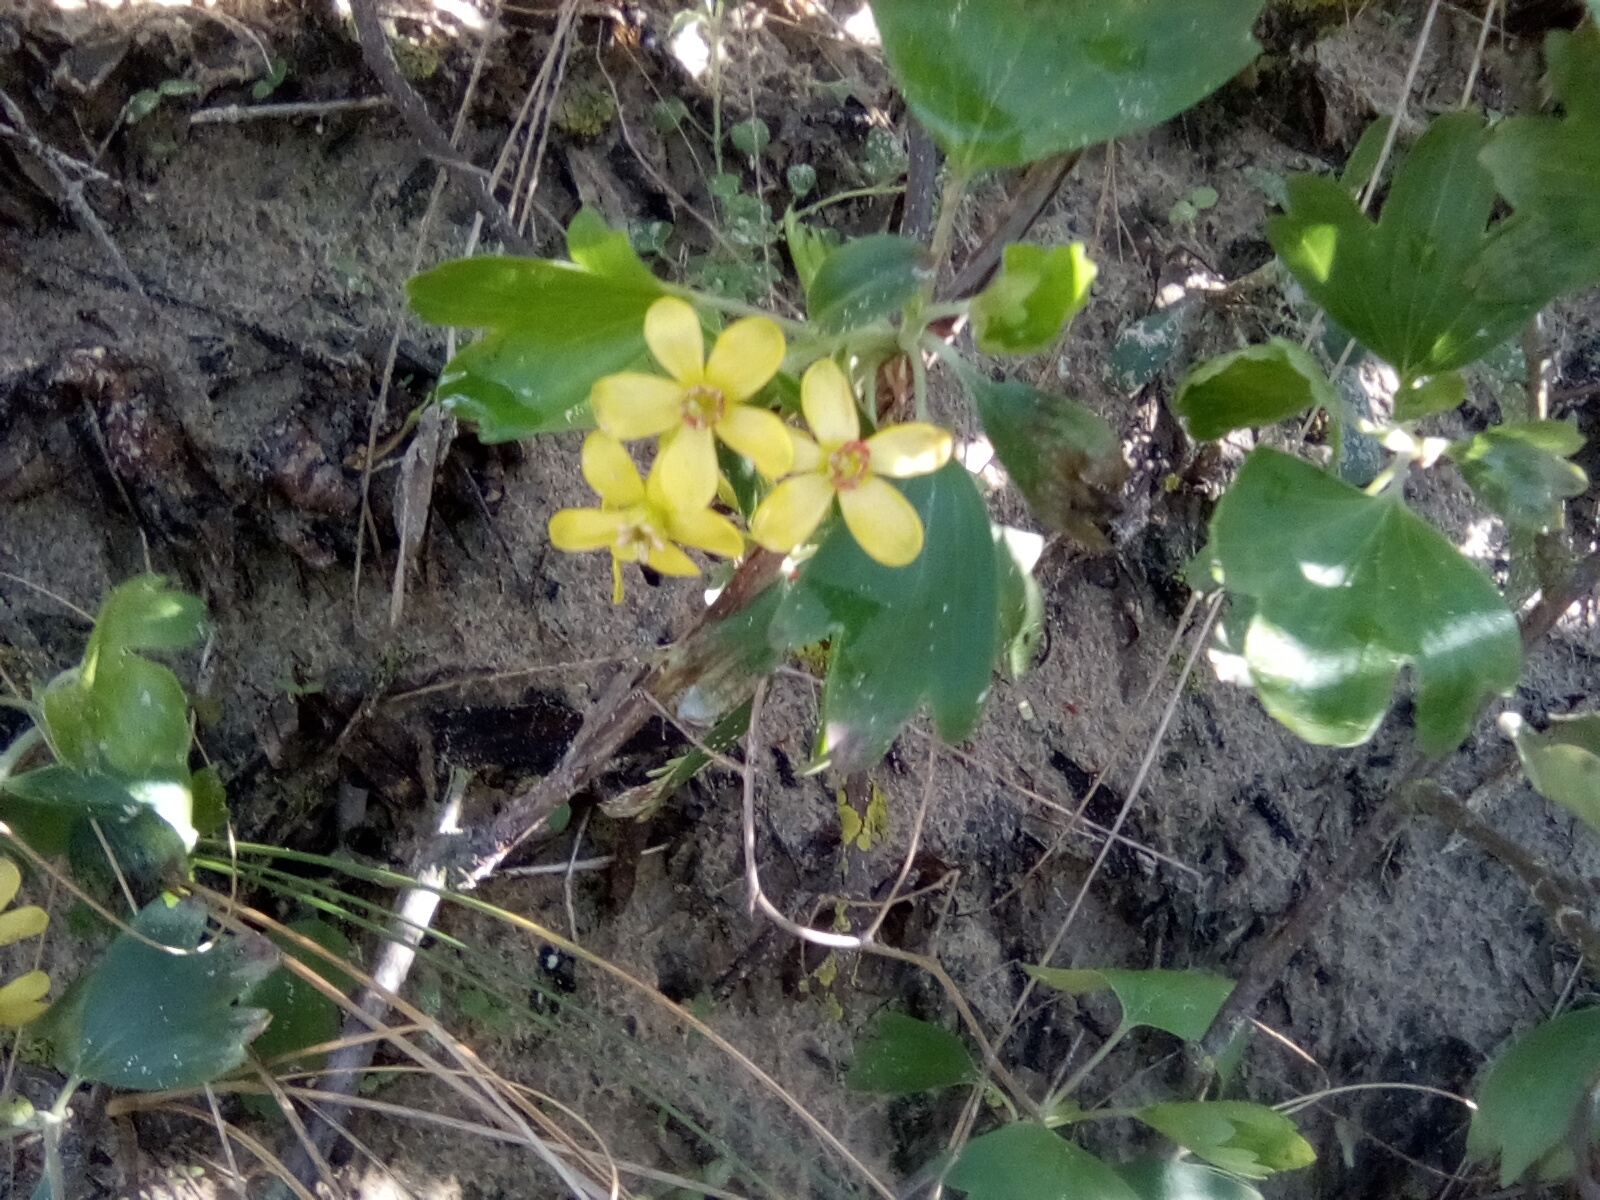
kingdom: Plantae
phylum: Tracheophyta
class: Magnoliopsida
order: Saxifragales
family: Grossulariaceae
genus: Ribes
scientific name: Ribes aureum
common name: Golden currant
